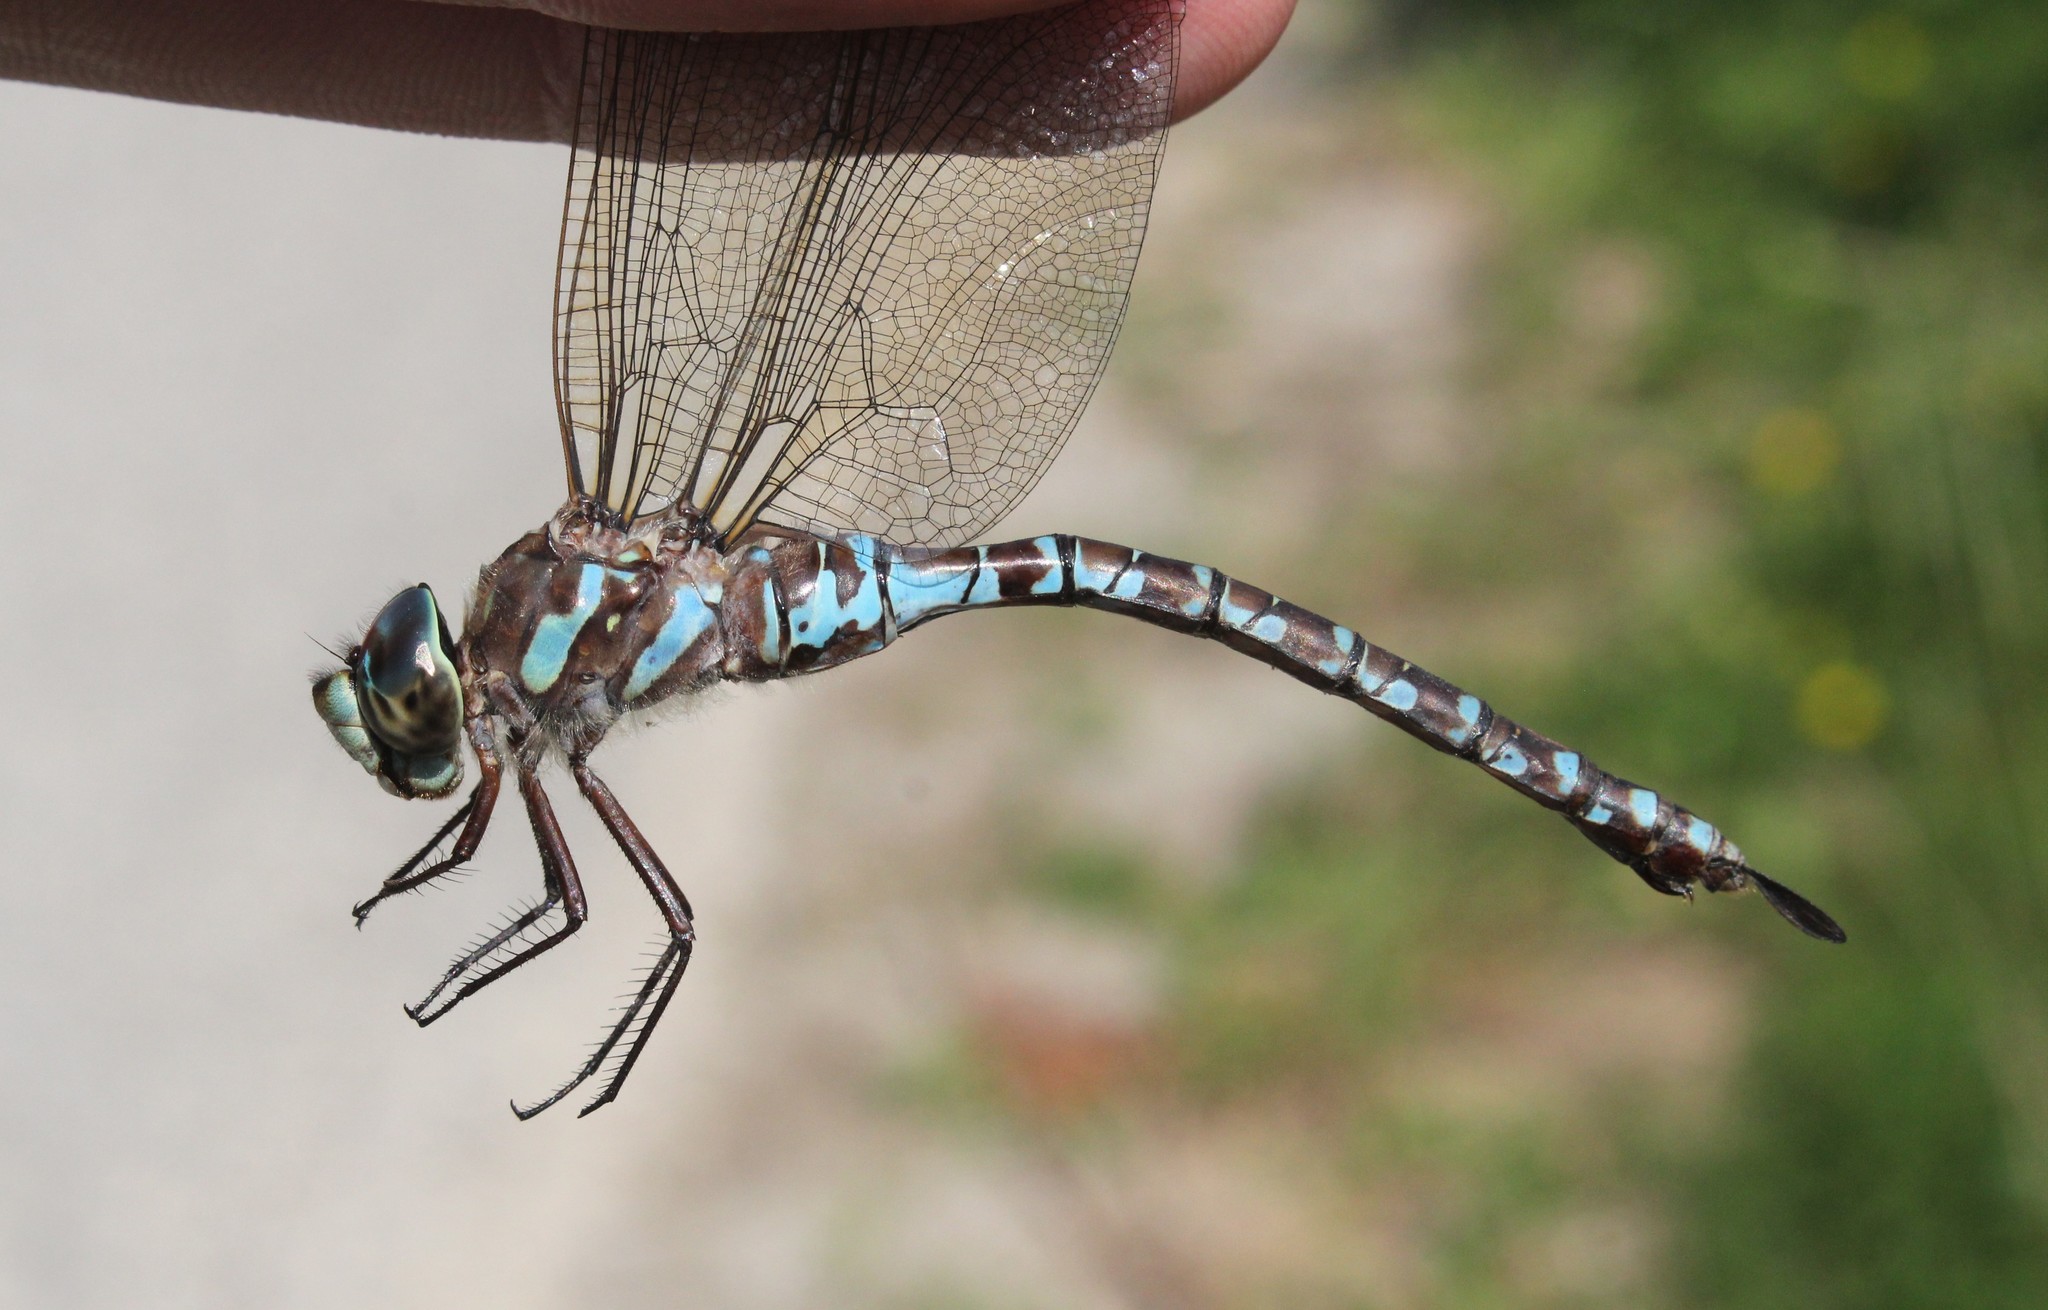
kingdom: Animalia
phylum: Arthropoda
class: Insecta
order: Odonata
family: Aeshnidae
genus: Aeshna
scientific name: Aeshna canadensis
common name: Canada darner
